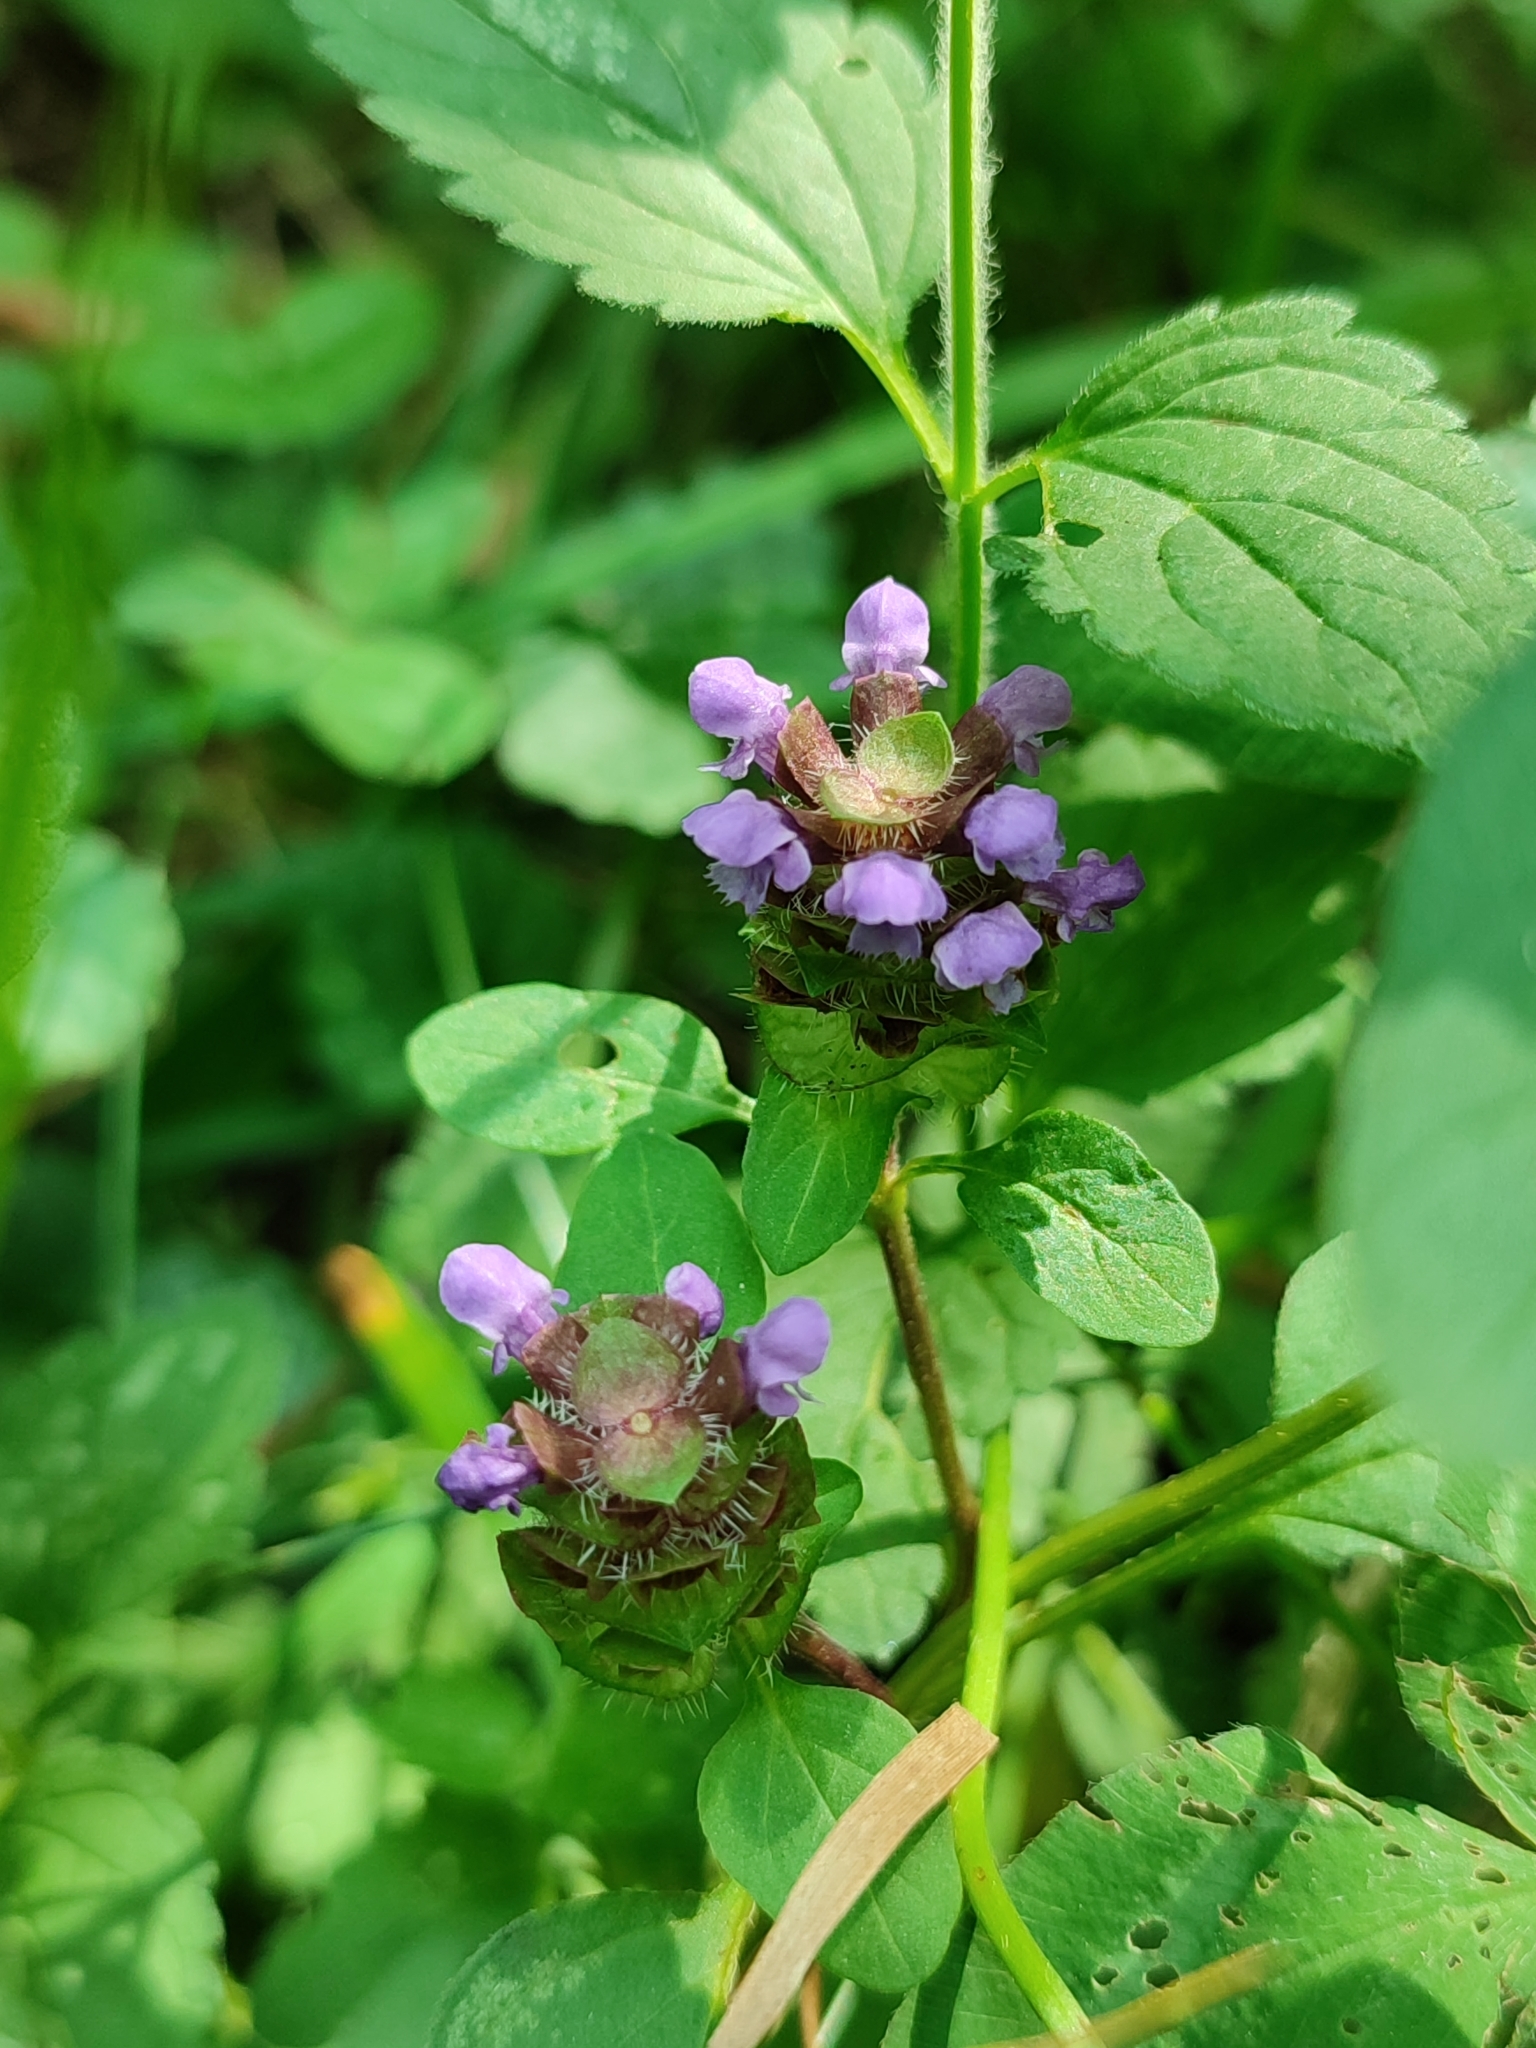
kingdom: Plantae
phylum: Tracheophyta
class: Magnoliopsida
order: Lamiales
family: Lamiaceae
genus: Prunella
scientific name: Prunella vulgaris
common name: Heal-all
